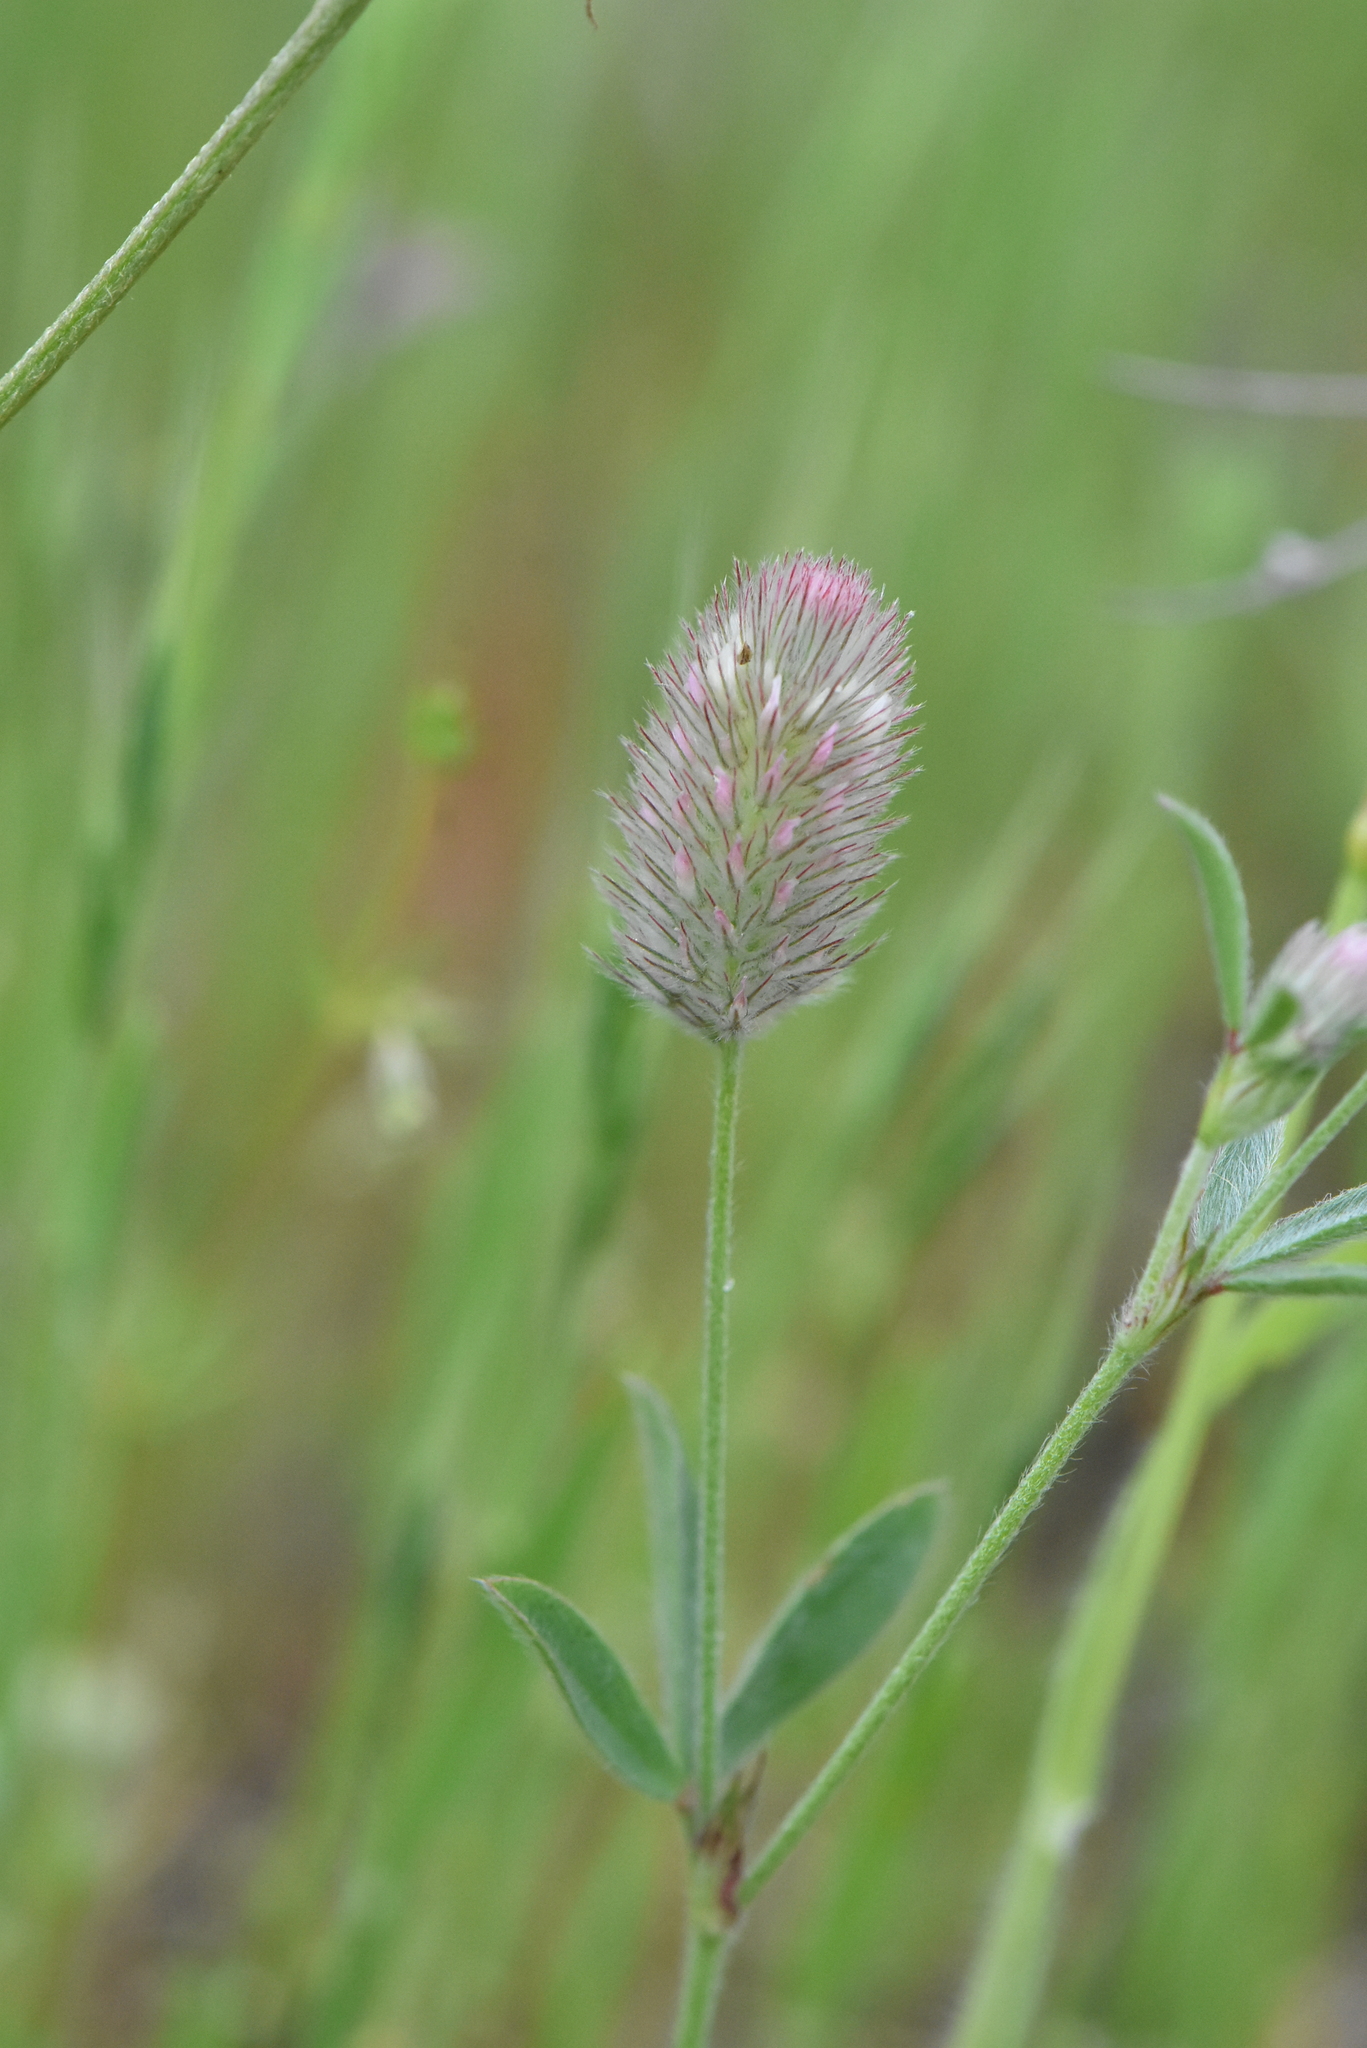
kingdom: Plantae
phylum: Tracheophyta
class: Magnoliopsida
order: Fabales
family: Fabaceae
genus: Trifolium
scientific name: Trifolium arvense
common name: Hare's-foot clover
